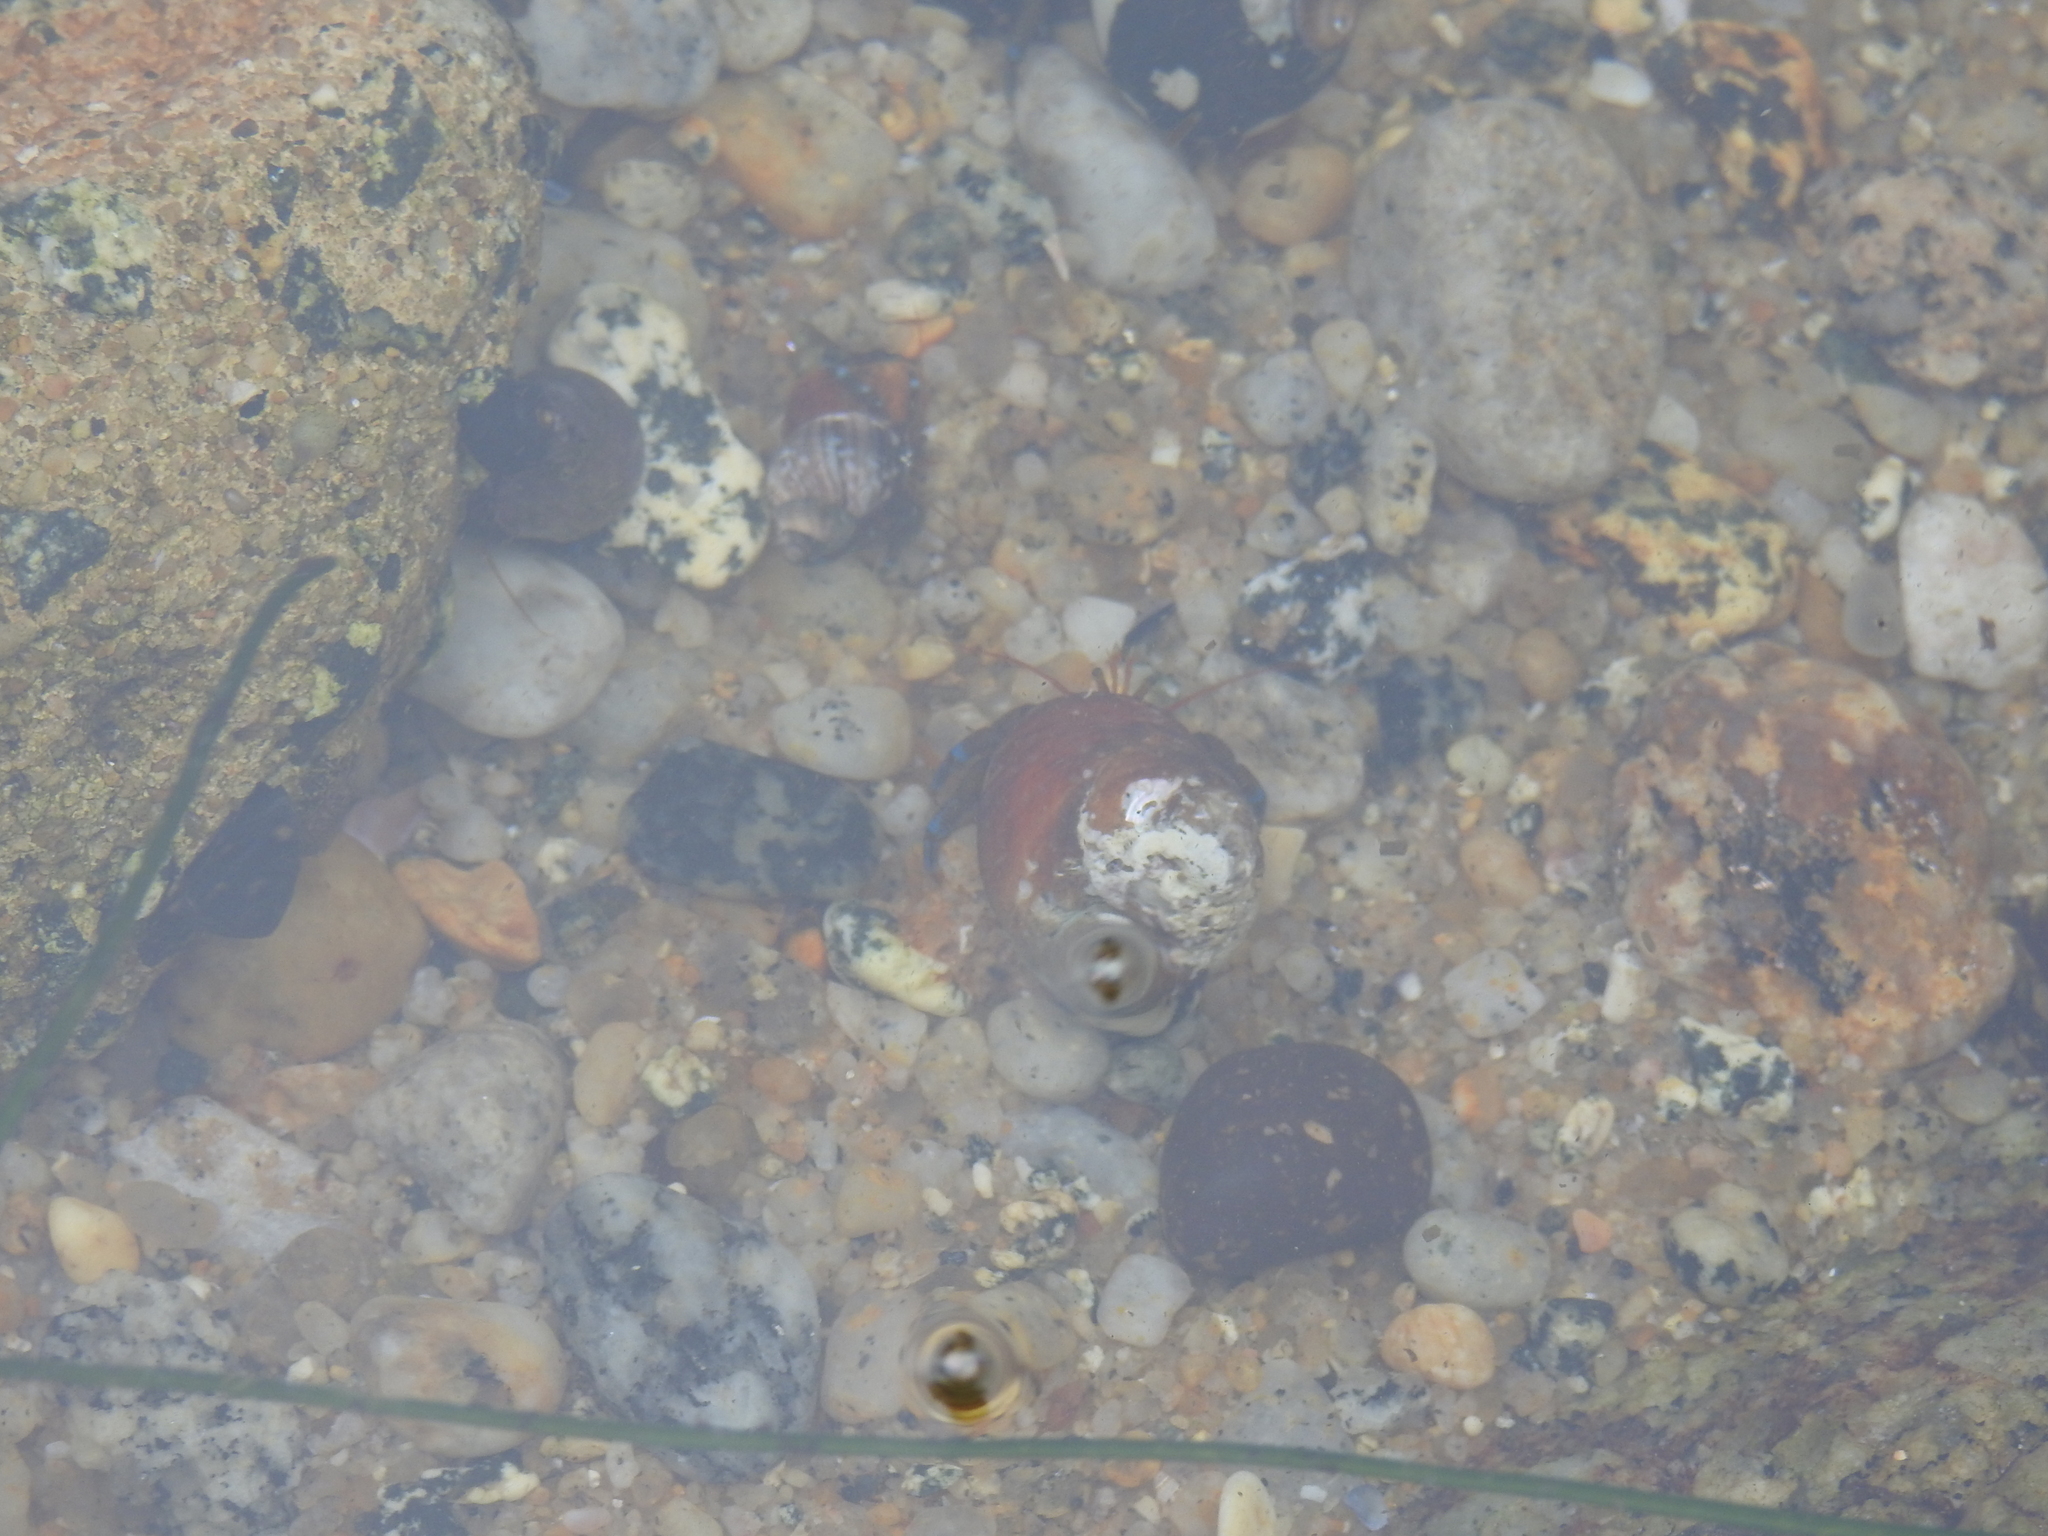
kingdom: Animalia
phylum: Arthropoda
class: Malacostraca
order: Decapoda
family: Paguridae
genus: Pagurus
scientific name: Pagurus samuelis
